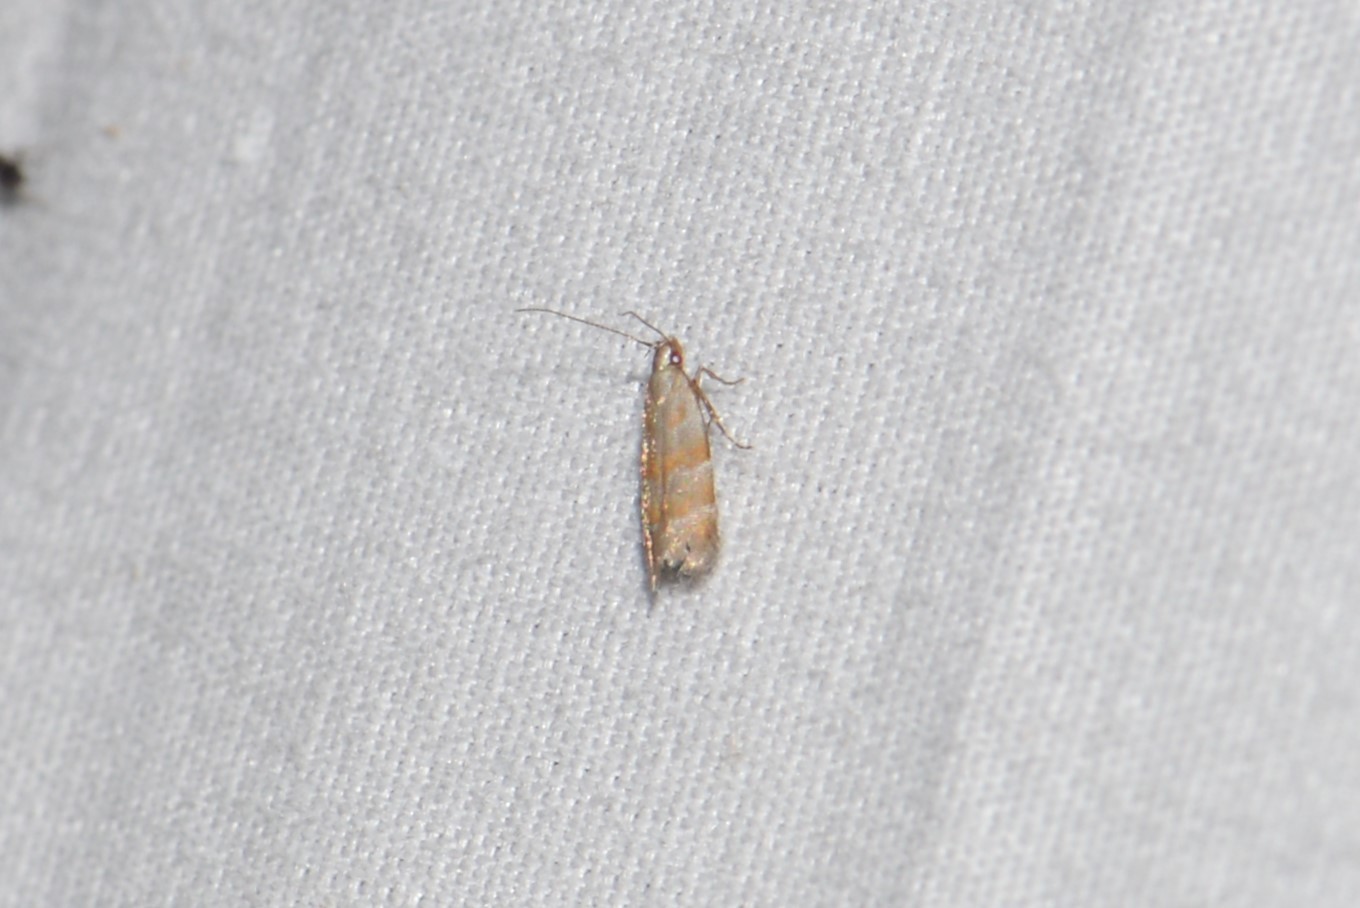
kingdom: Animalia
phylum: Arthropoda
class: Insecta
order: Lepidoptera
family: Gelechiidae
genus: Battaristis
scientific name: Battaristis vittella
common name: Orange stripe-backed moth
